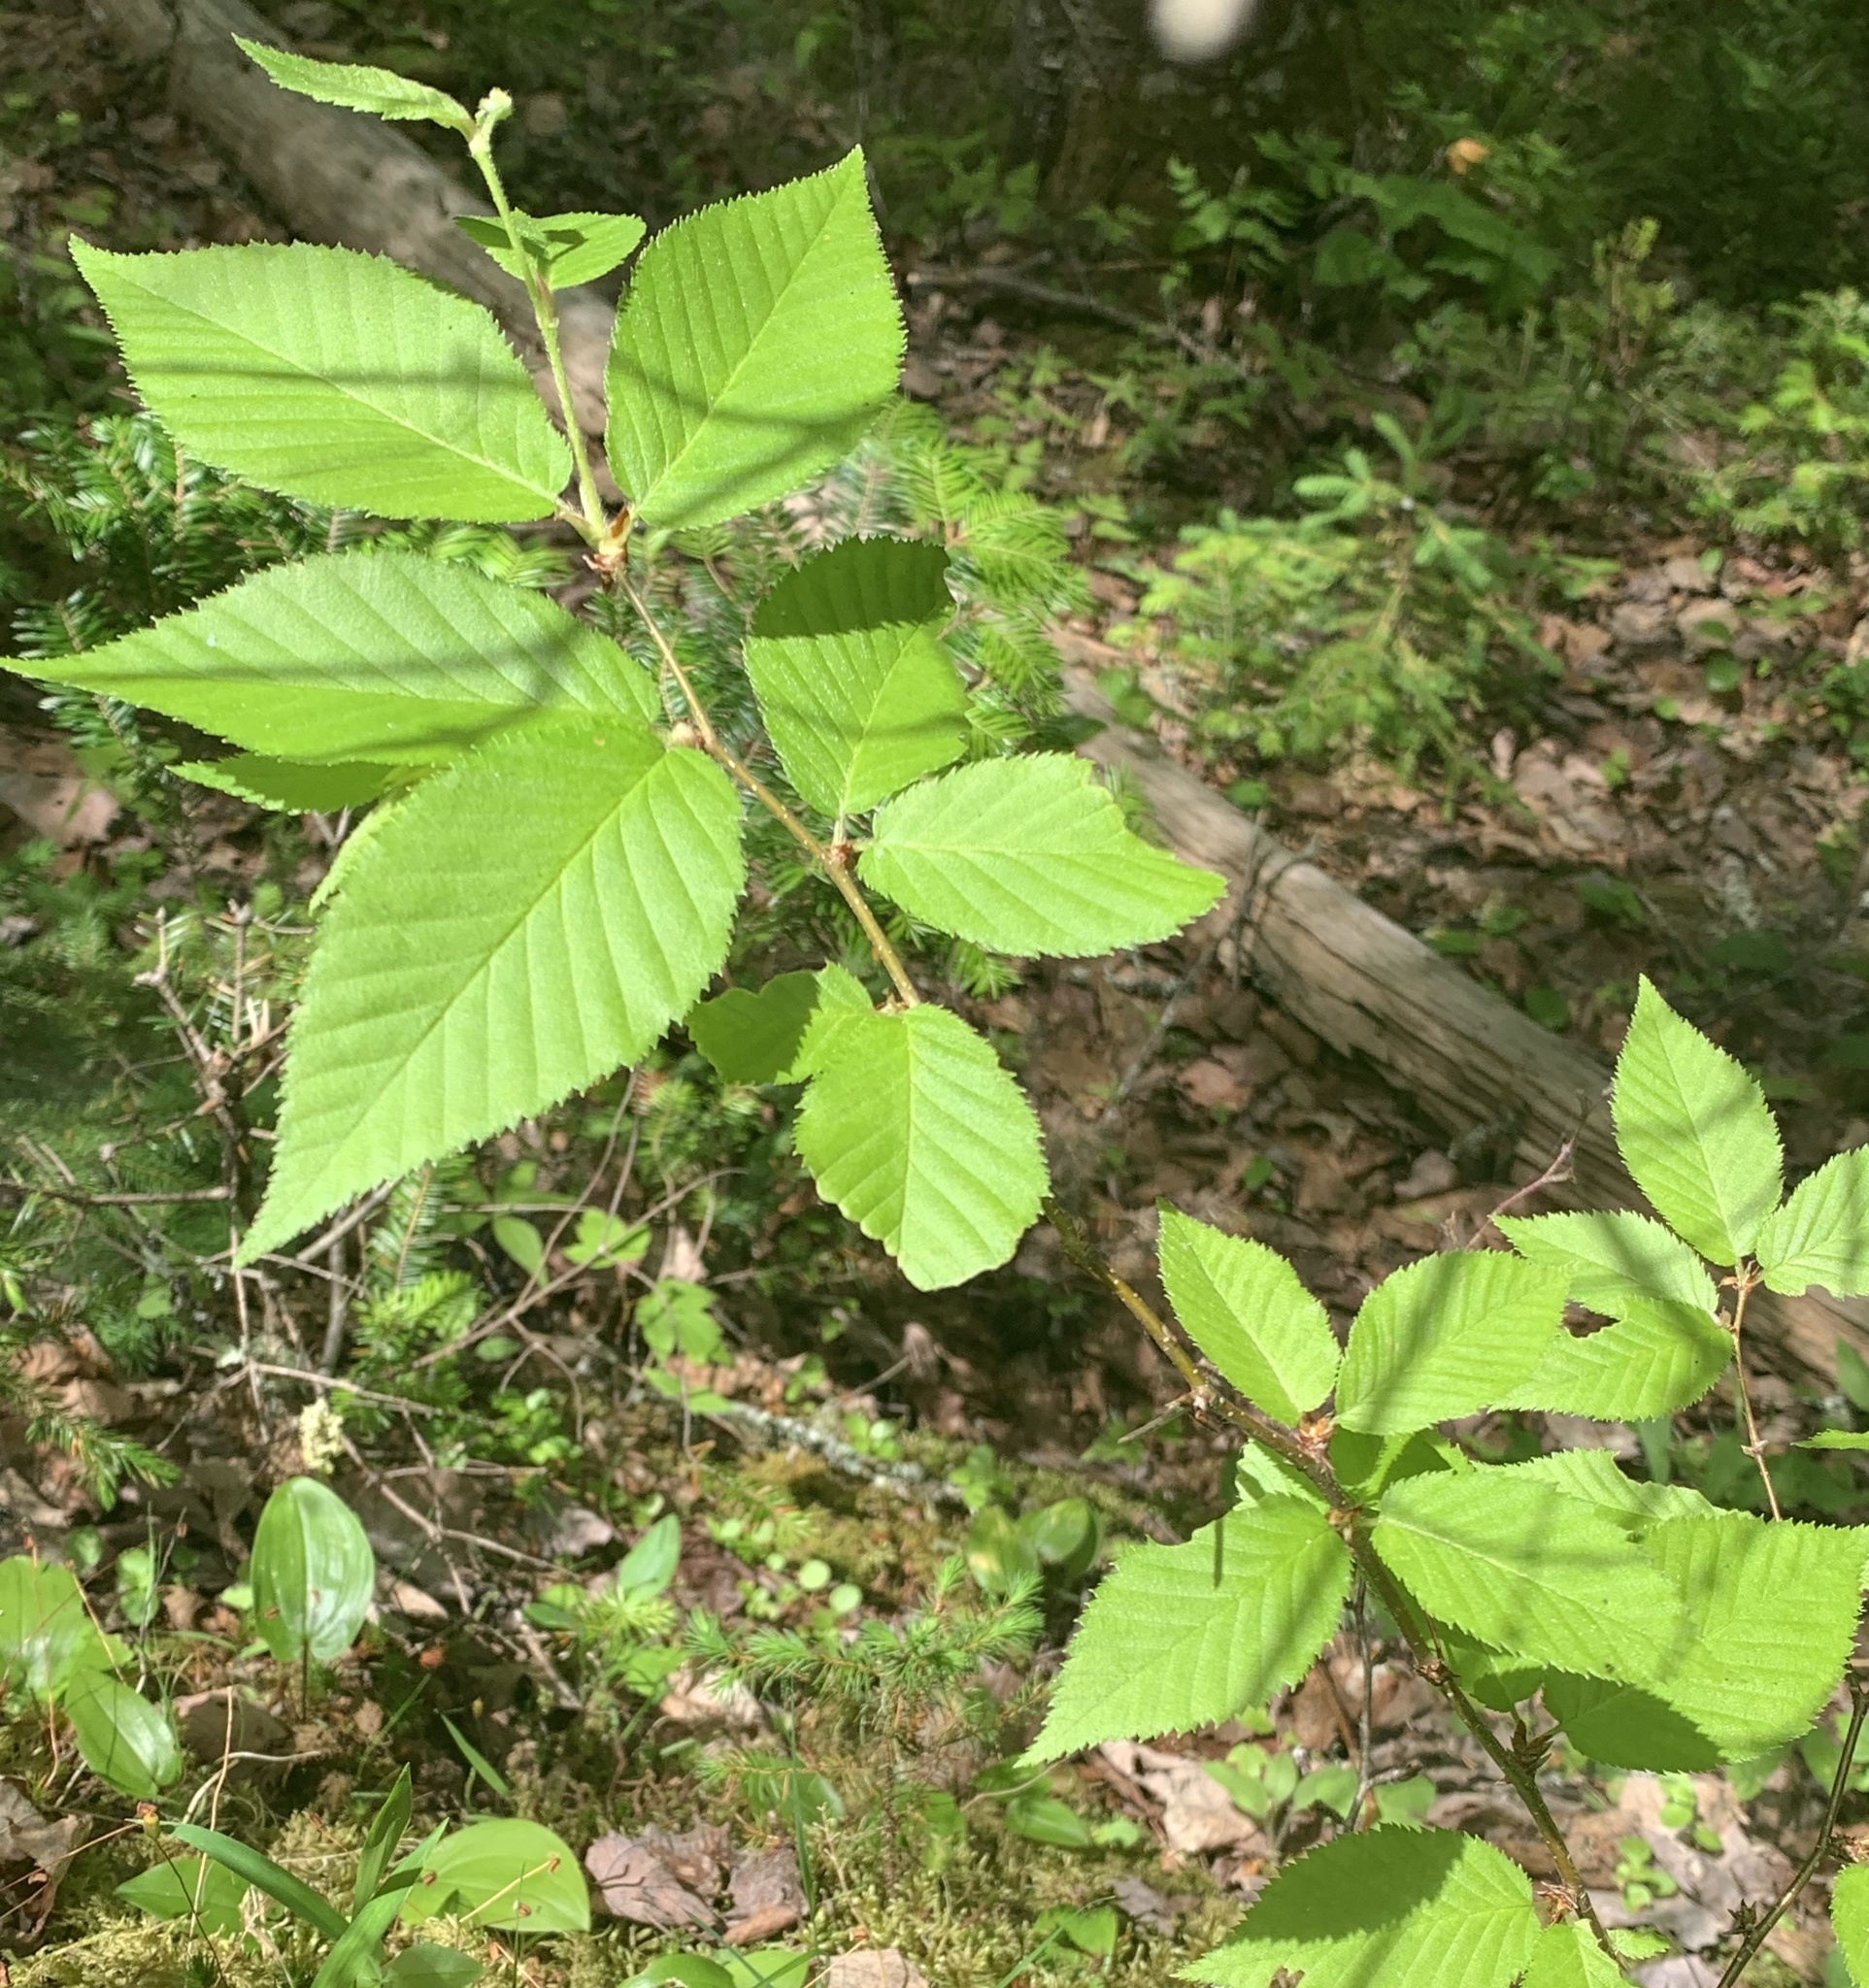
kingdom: Plantae
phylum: Tracheophyta
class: Magnoliopsida
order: Fagales
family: Betulaceae
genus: Betula
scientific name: Betula alleghaniensis
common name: Yellow birch
